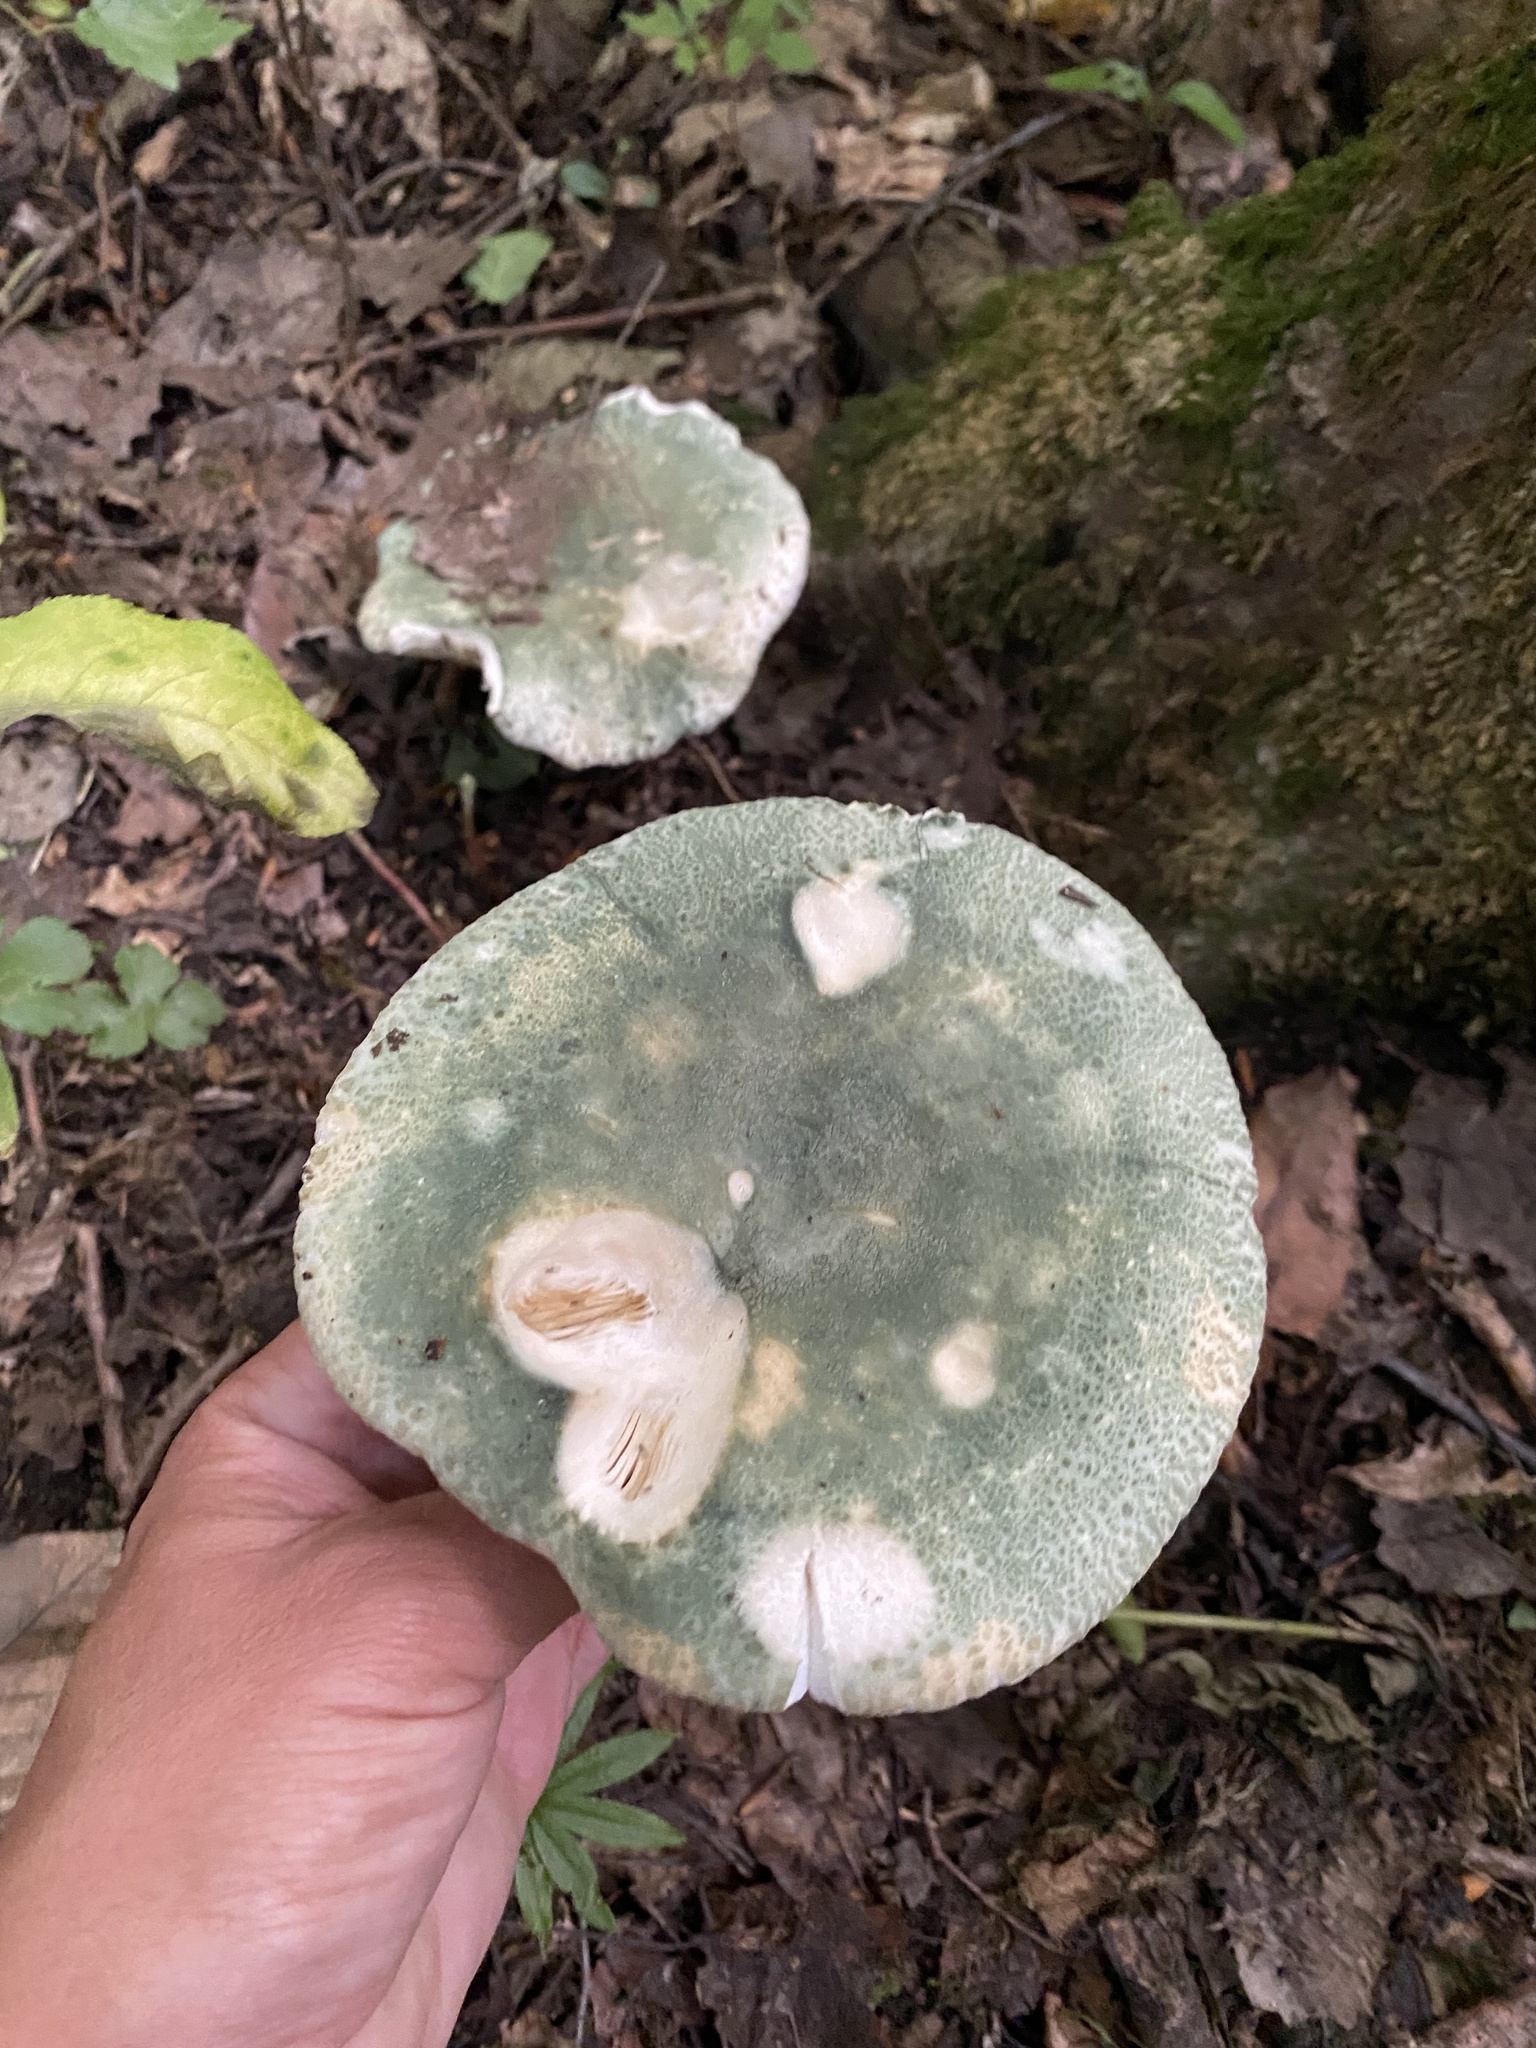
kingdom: Fungi
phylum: Basidiomycota
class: Agaricomycetes
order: Russulales
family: Russulaceae
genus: Russula
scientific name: Russula virescens
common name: Greencracked brittlegill
